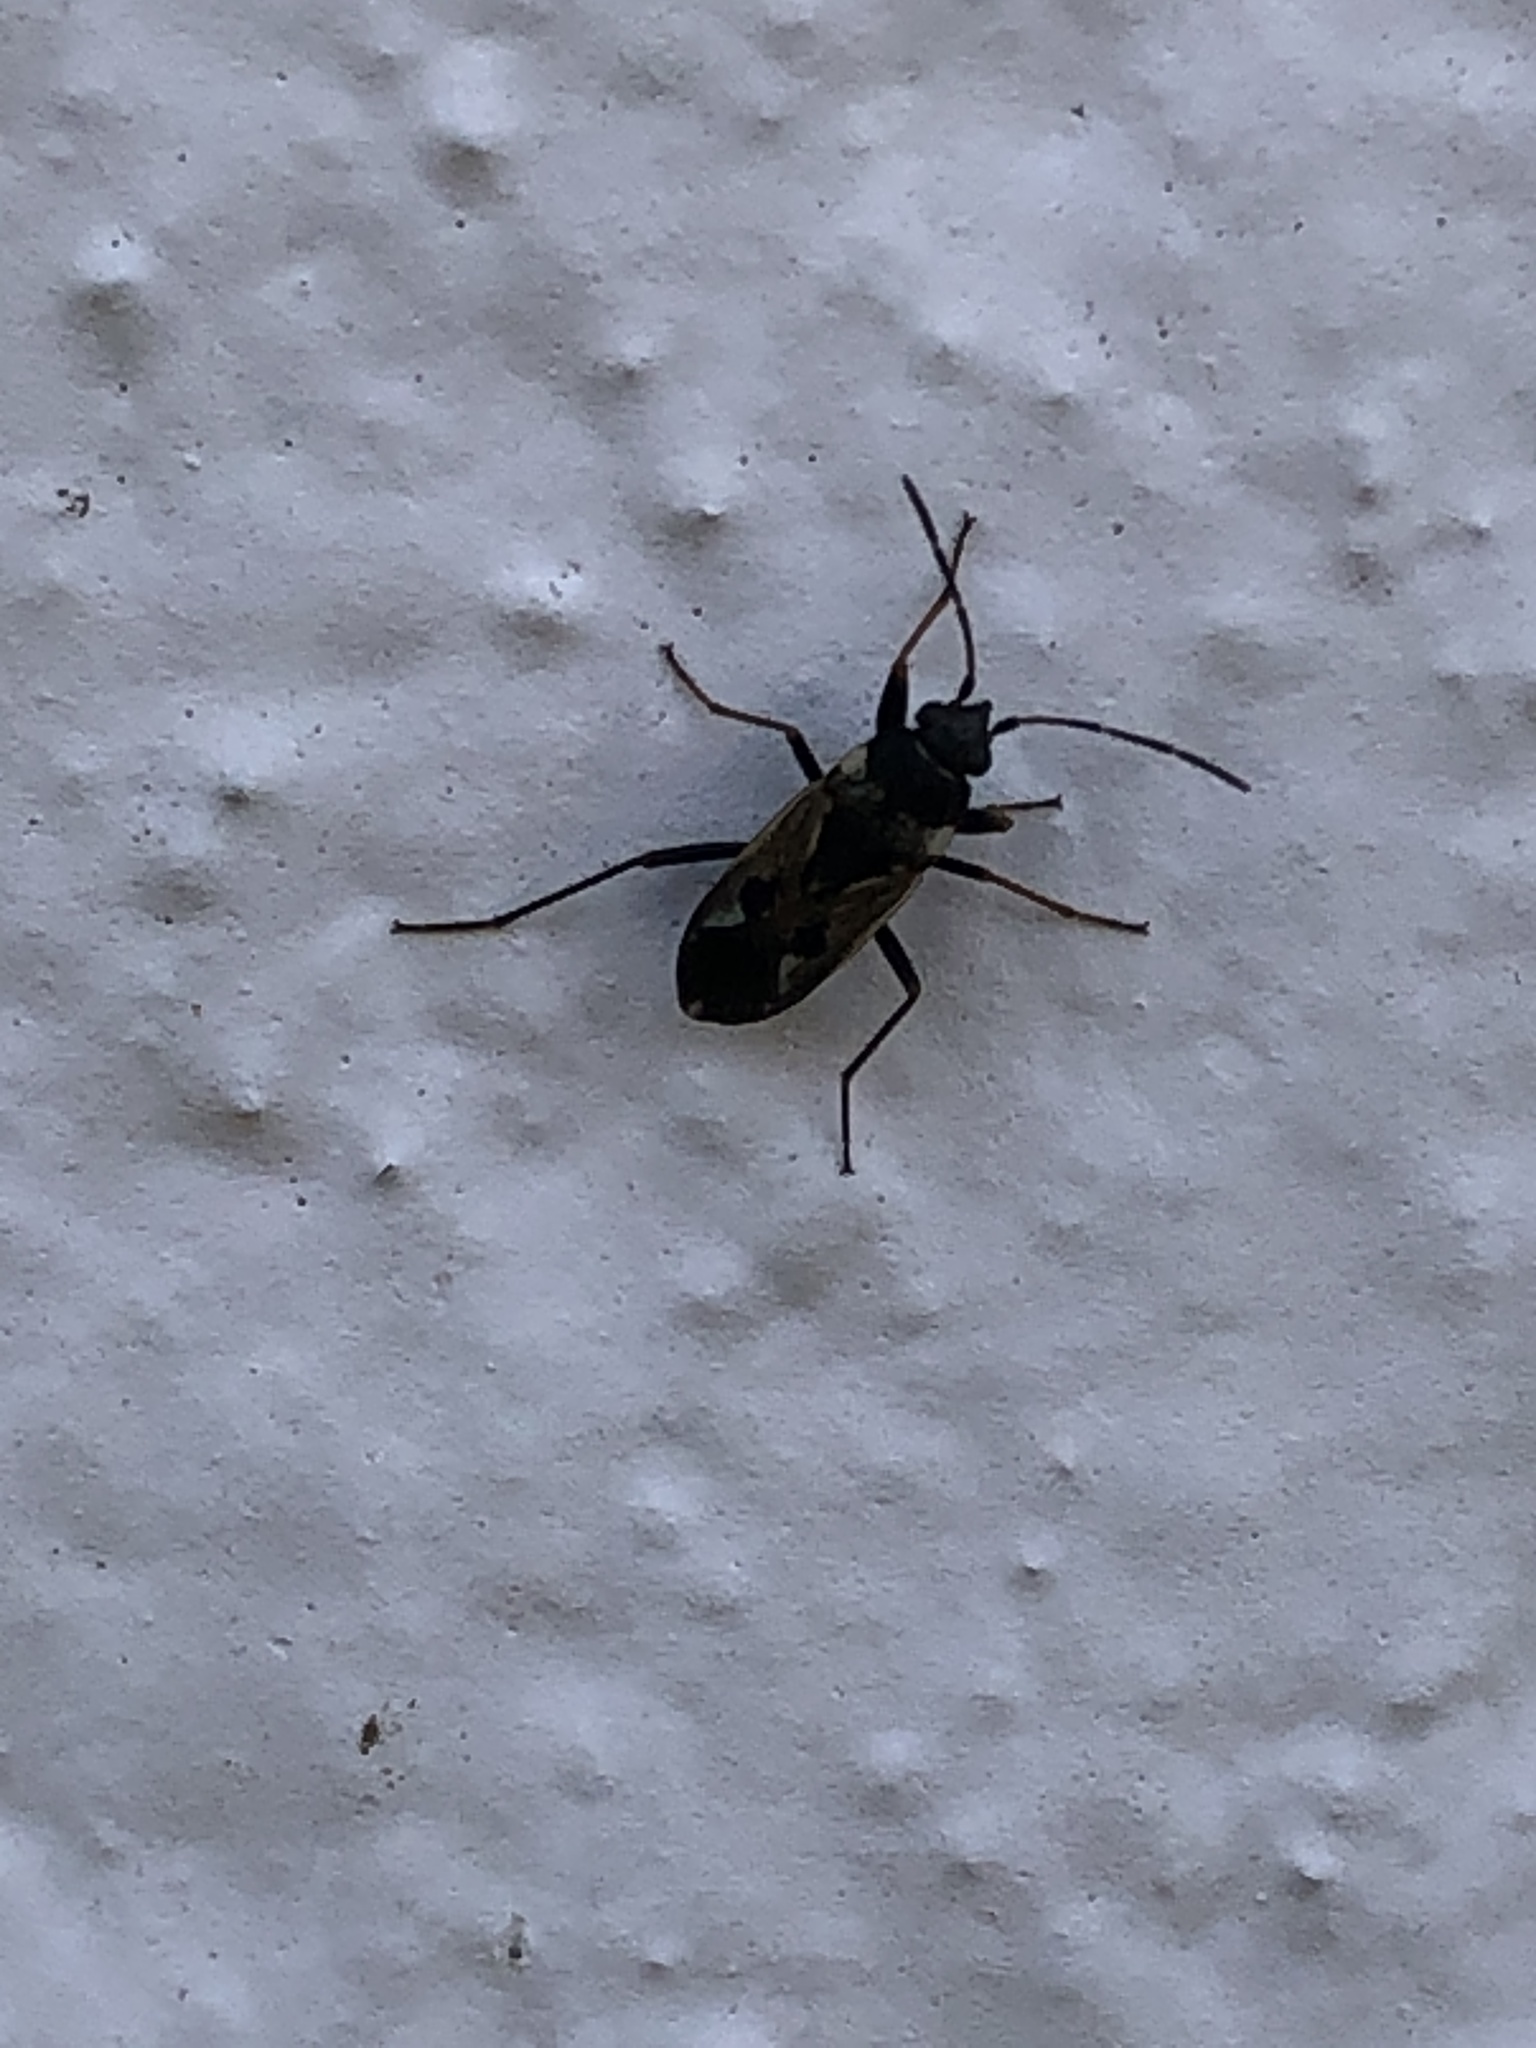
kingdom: Animalia
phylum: Arthropoda
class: Insecta
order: Hemiptera
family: Rhyparochromidae
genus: Rhyparochromus
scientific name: Rhyparochromus vulgaris
